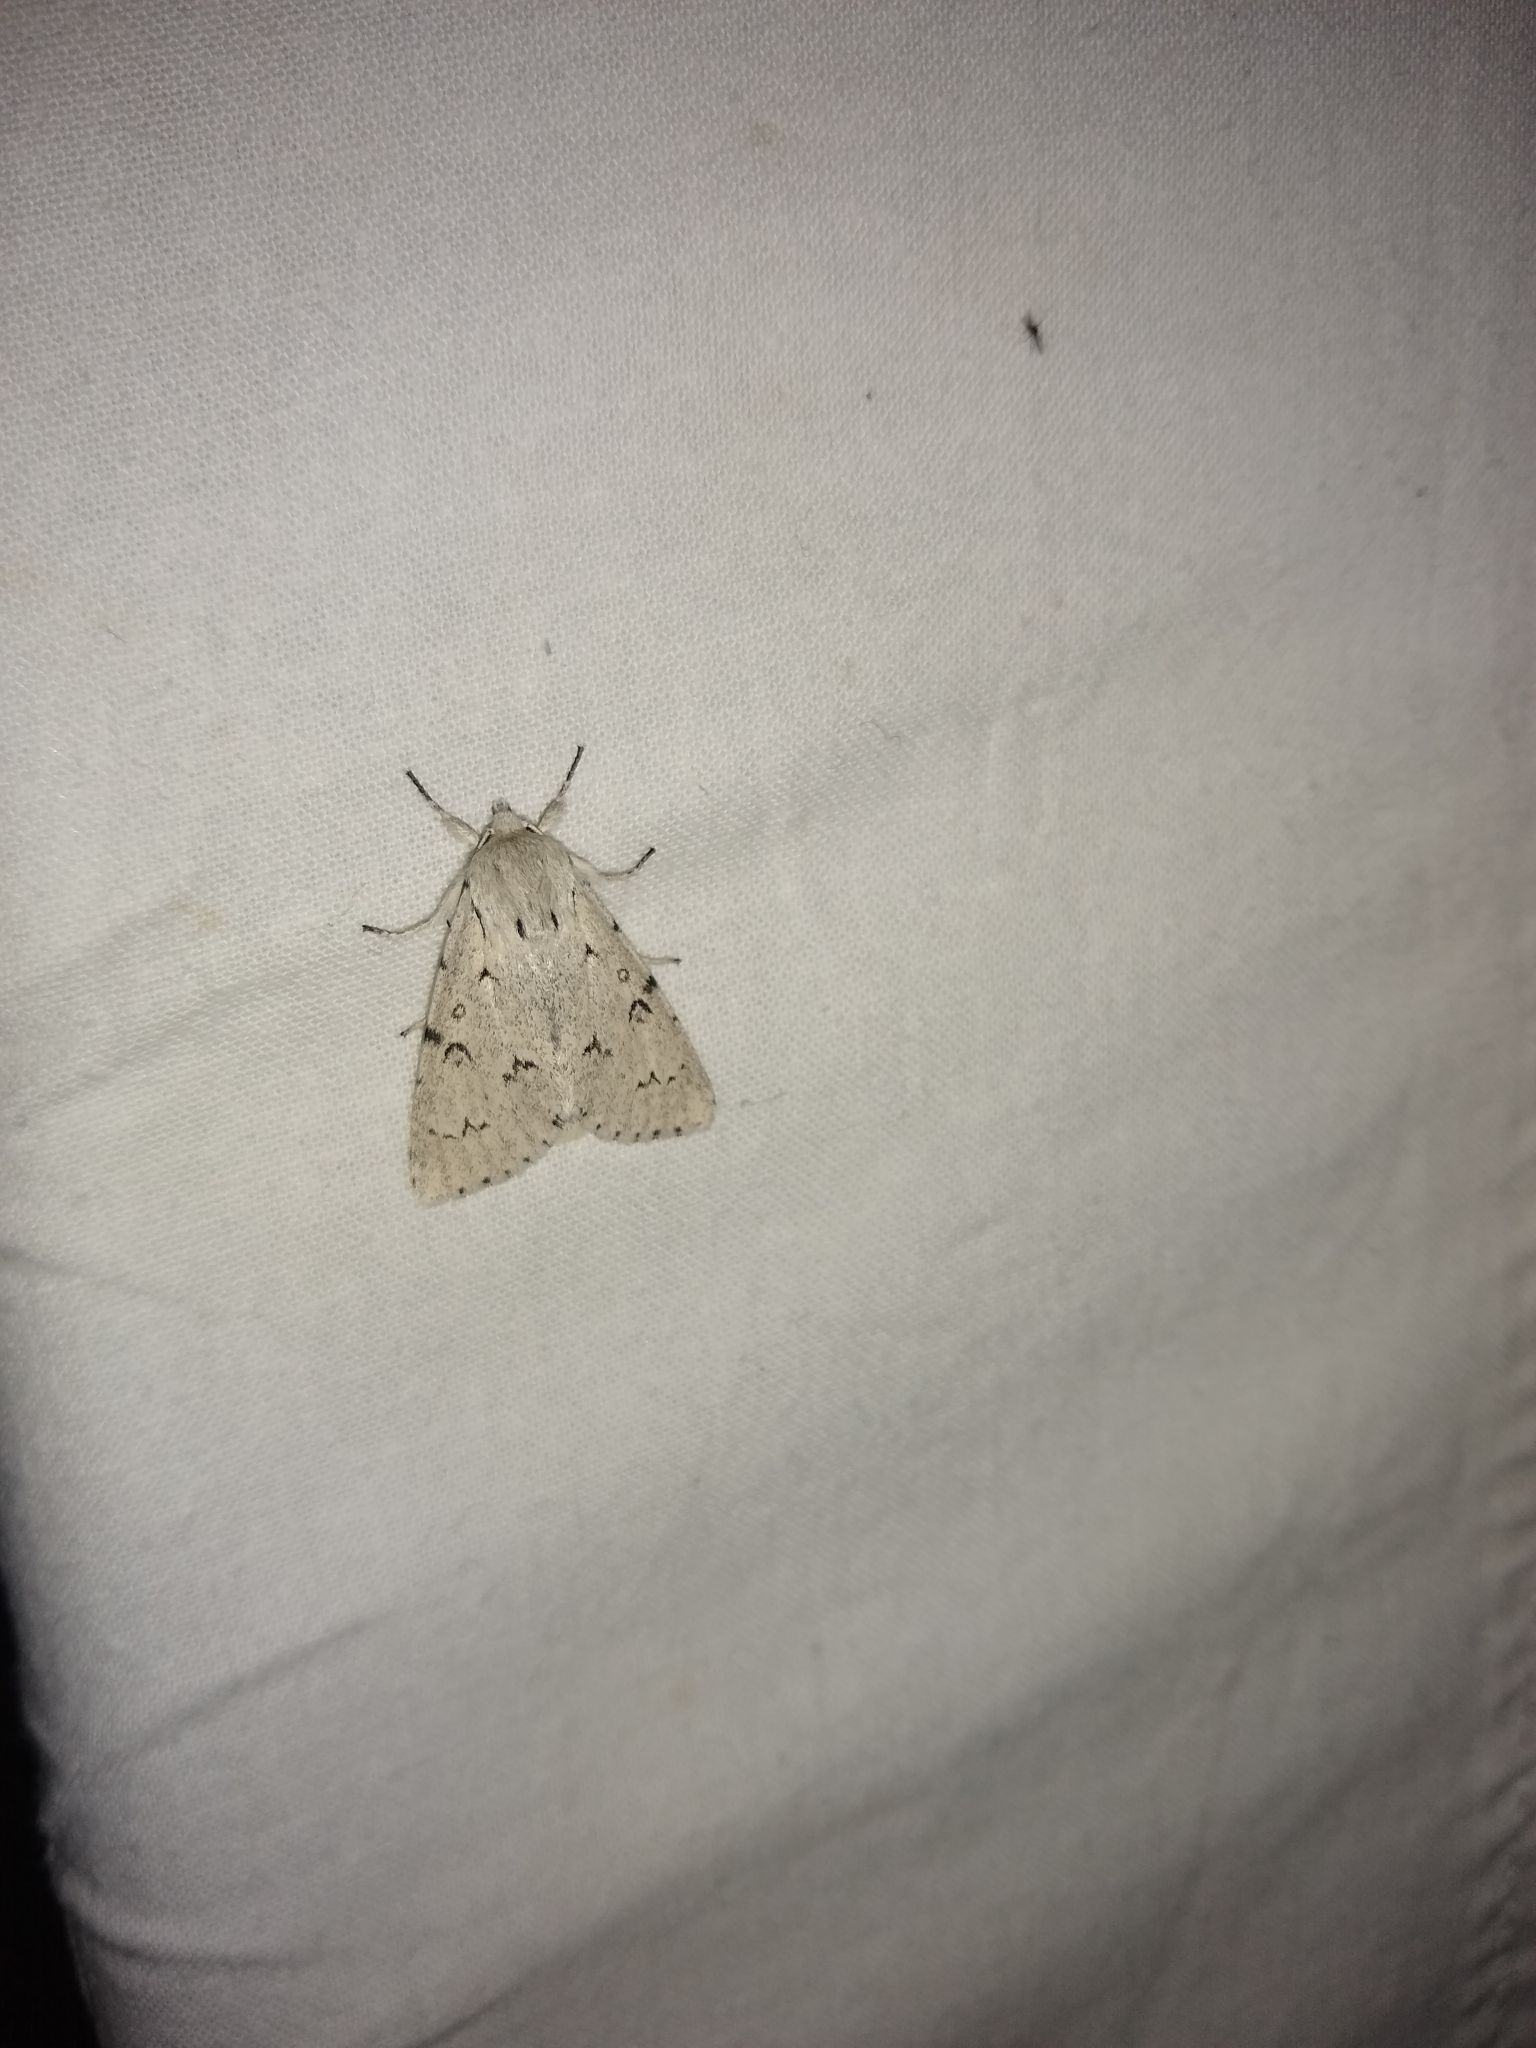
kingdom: Animalia
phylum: Arthropoda
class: Insecta
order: Lepidoptera
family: Noctuidae
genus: Acronicta
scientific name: Acronicta leporina
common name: Miller
